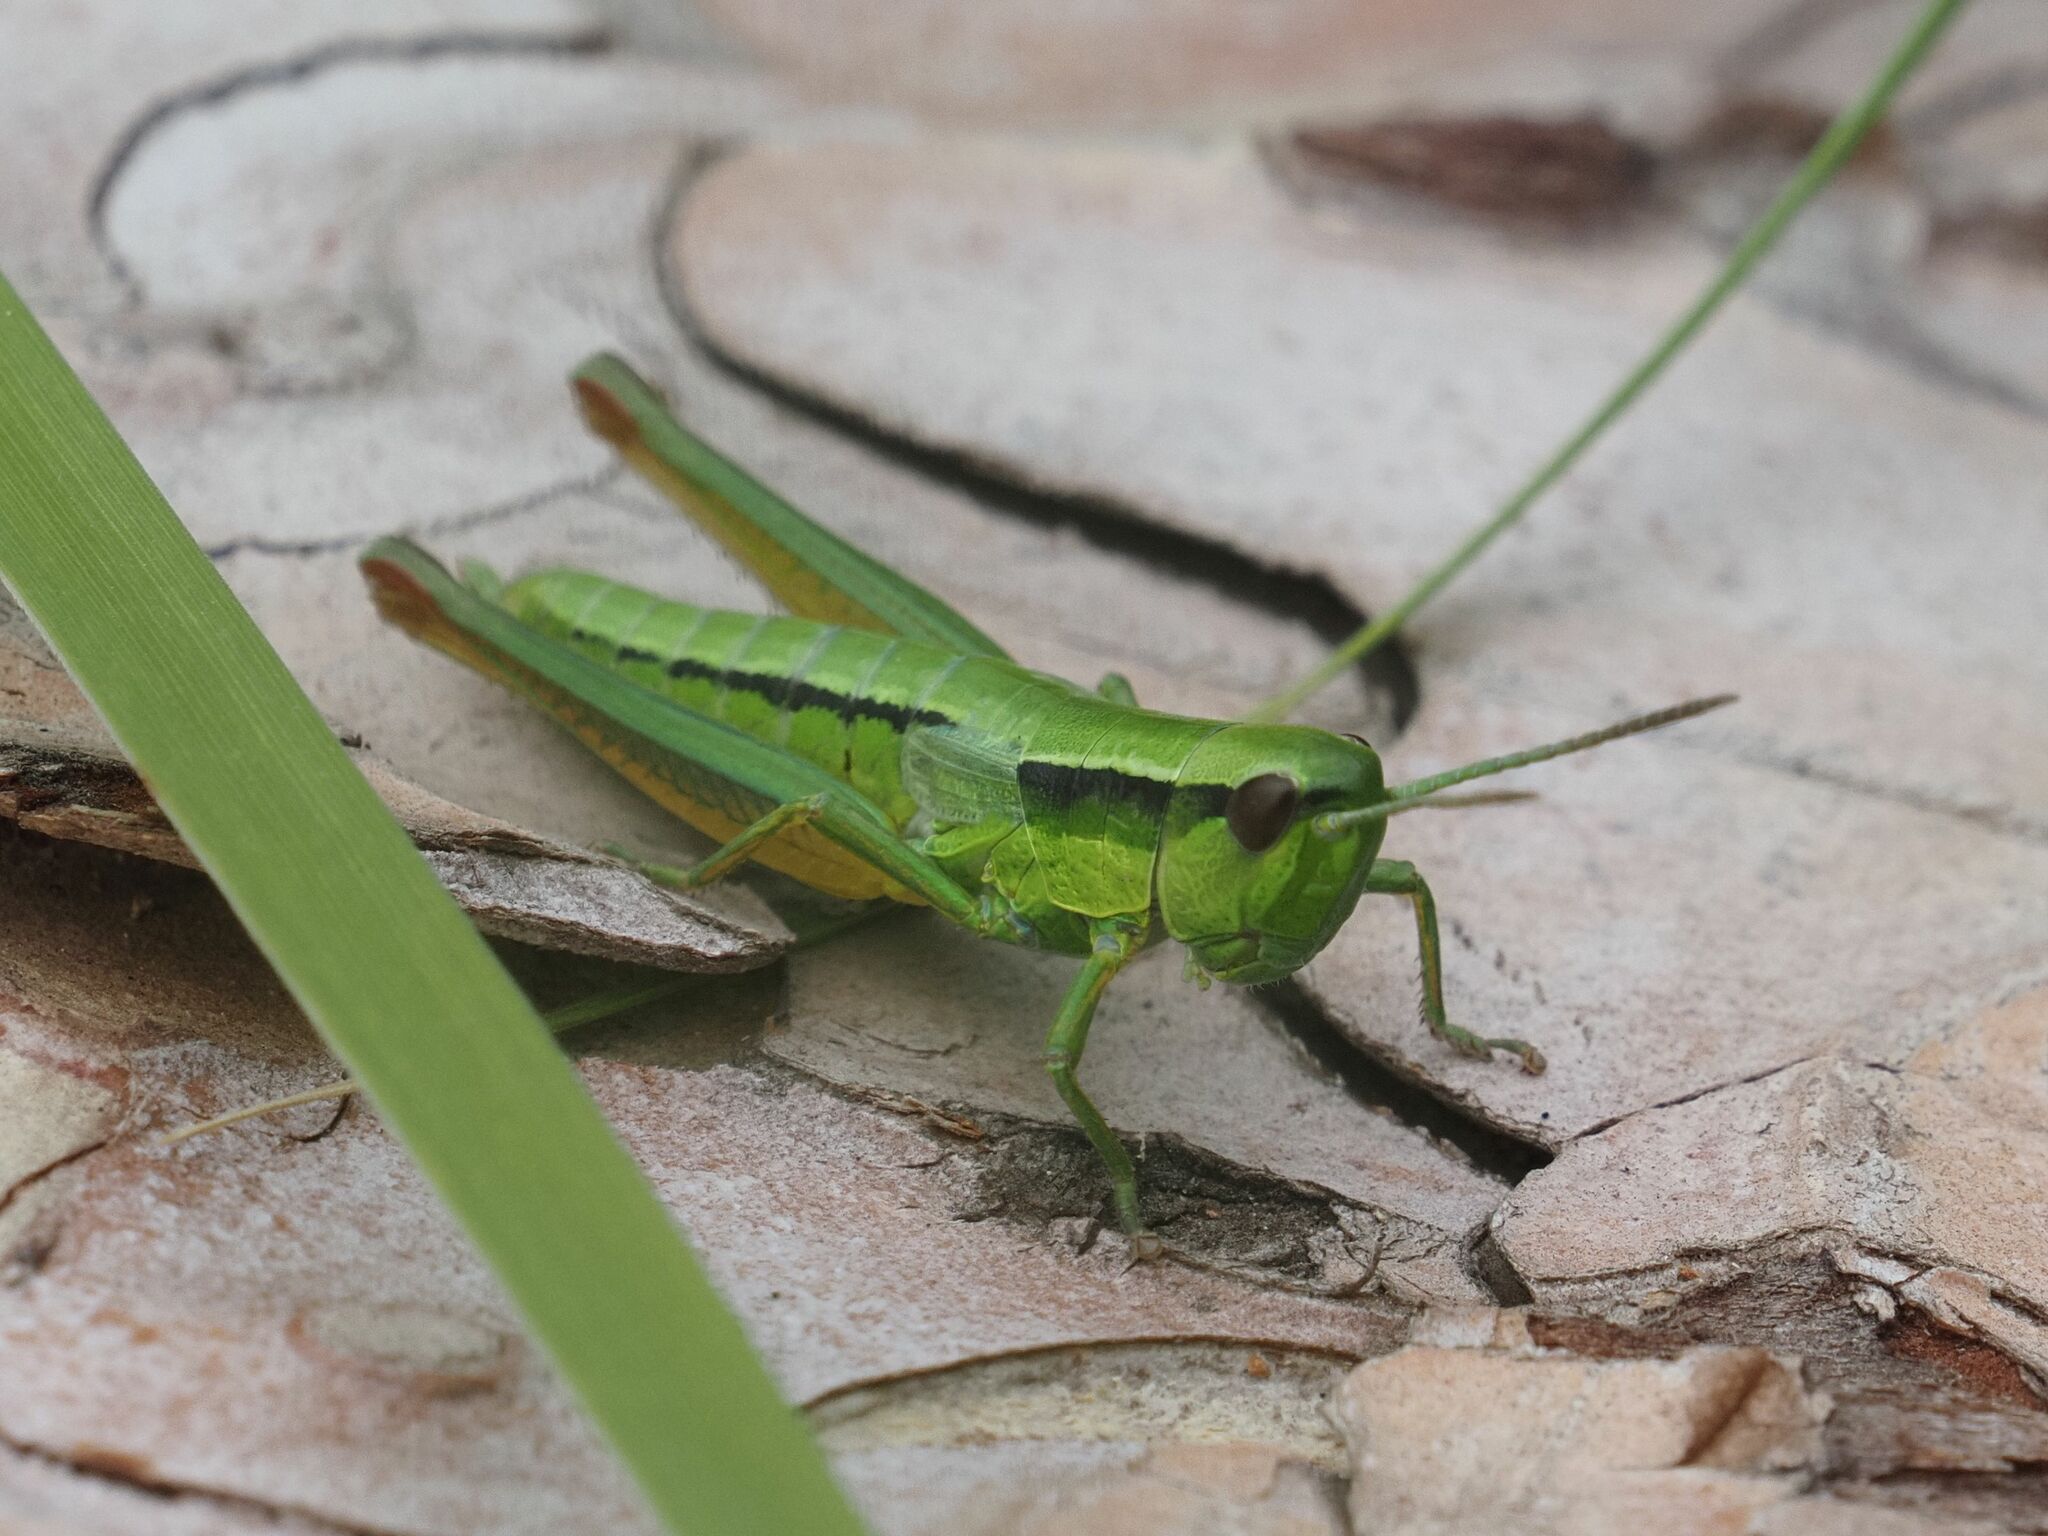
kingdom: Animalia
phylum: Arthropoda
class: Insecta
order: Orthoptera
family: Acrididae
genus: Euthystira
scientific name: Euthystira brachyptera
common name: Small gold grasshopper
